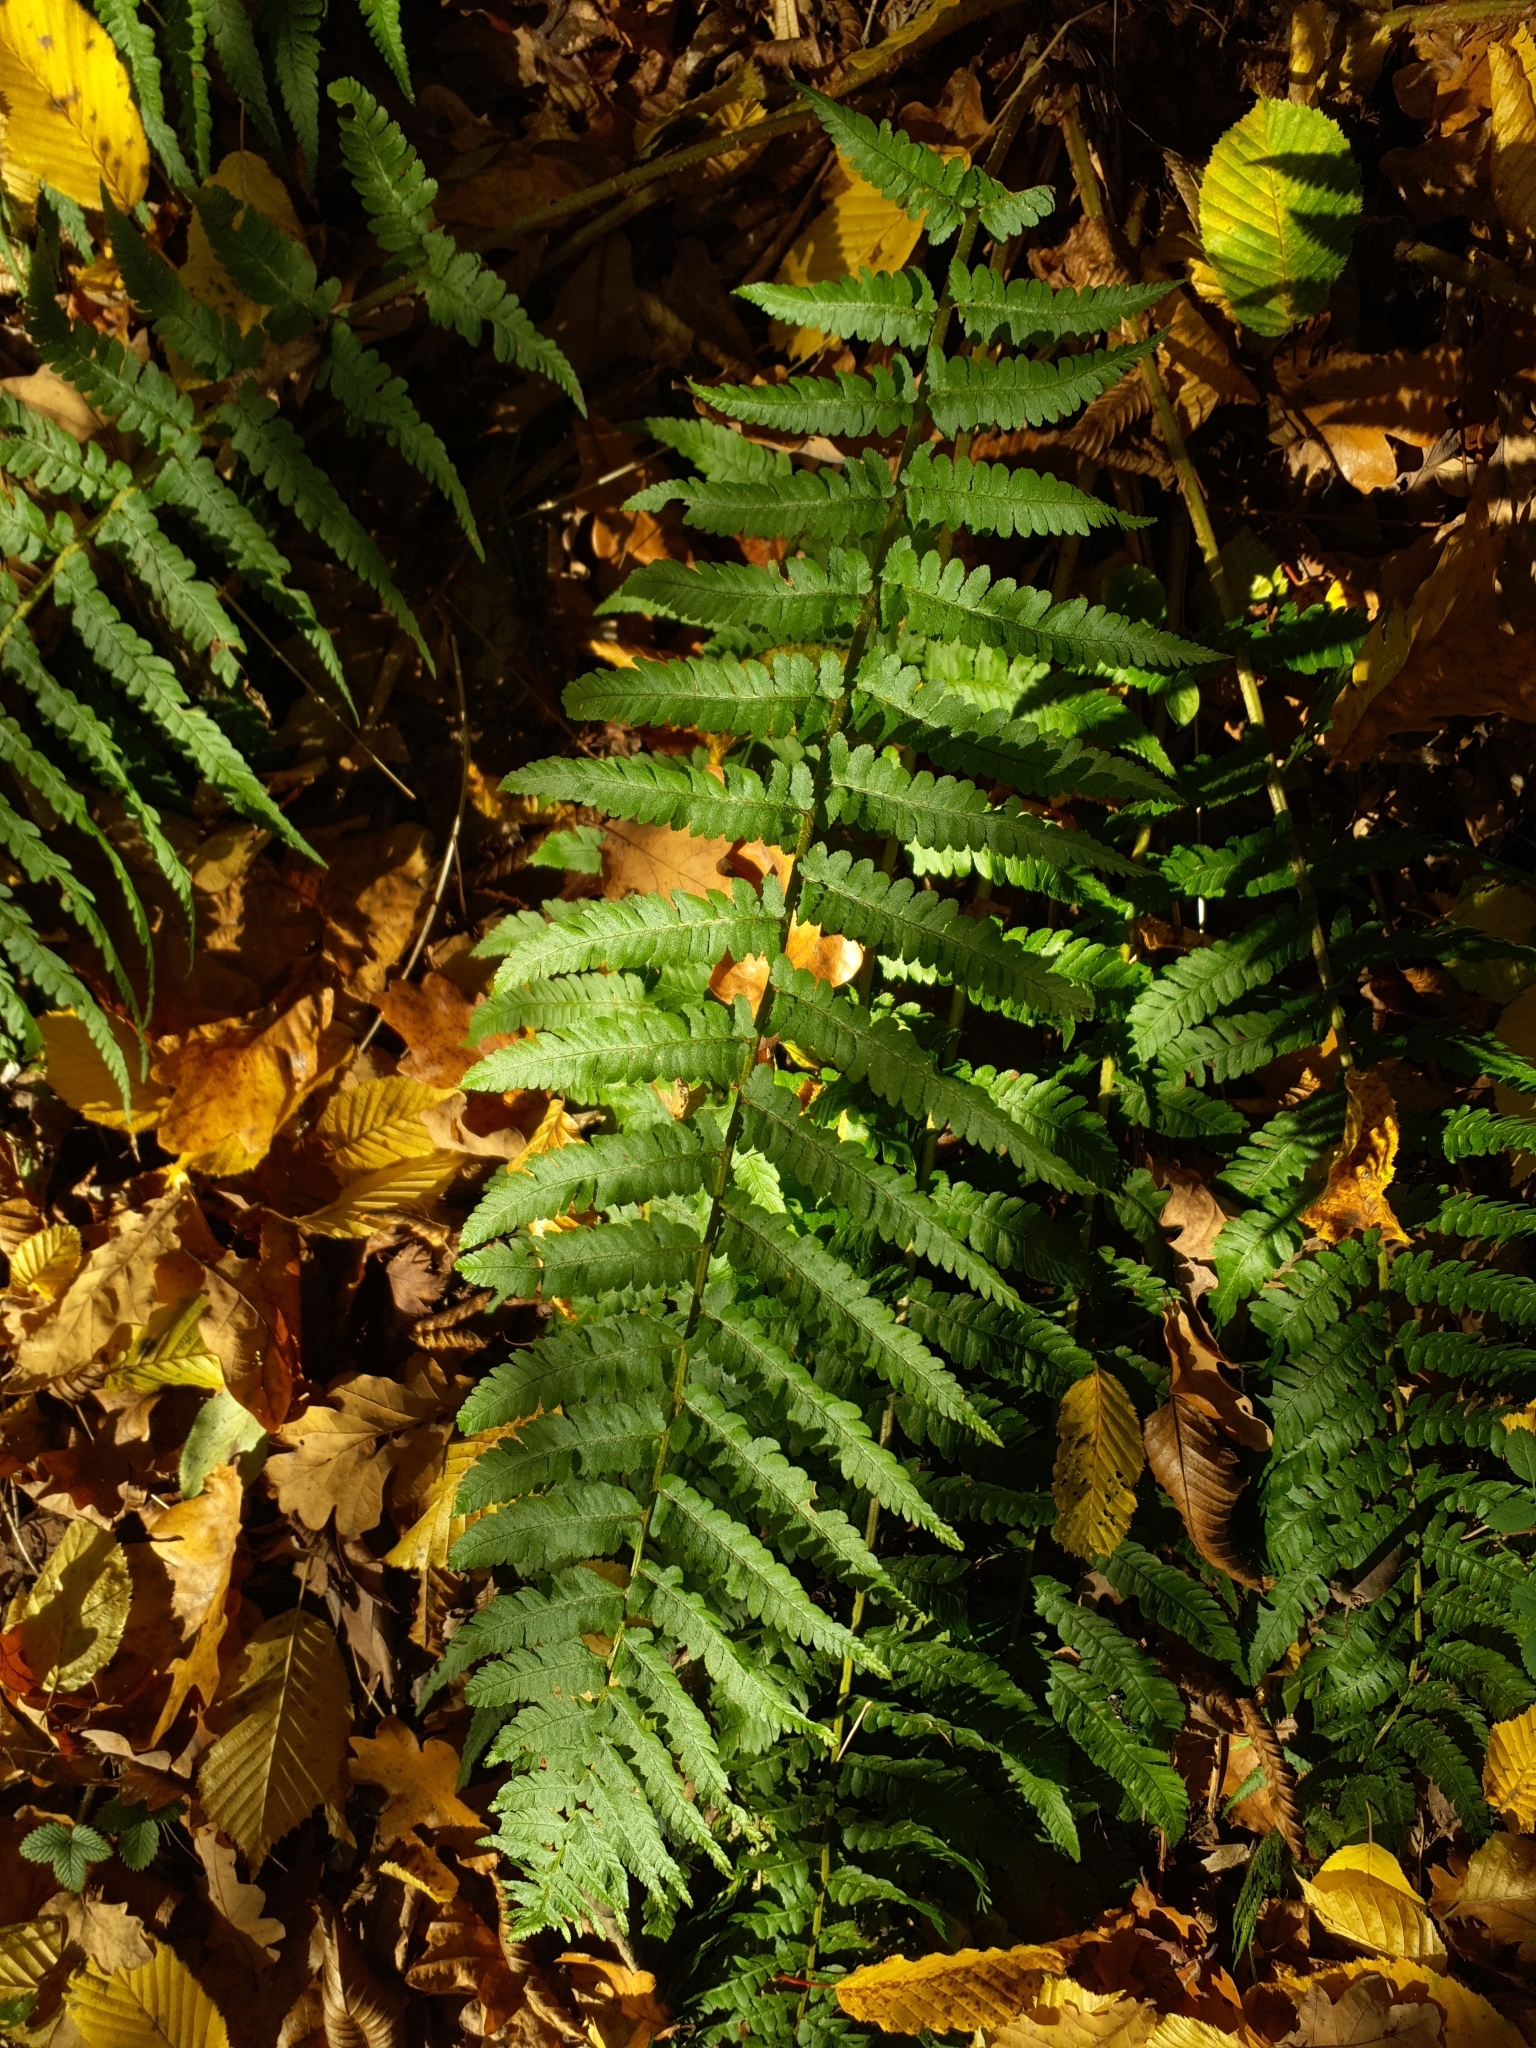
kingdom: Plantae
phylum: Tracheophyta
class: Polypodiopsida
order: Polypodiales
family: Dryopteridaceae
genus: Dryopteris
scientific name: Dryopteris filix-mas
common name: Male fern
